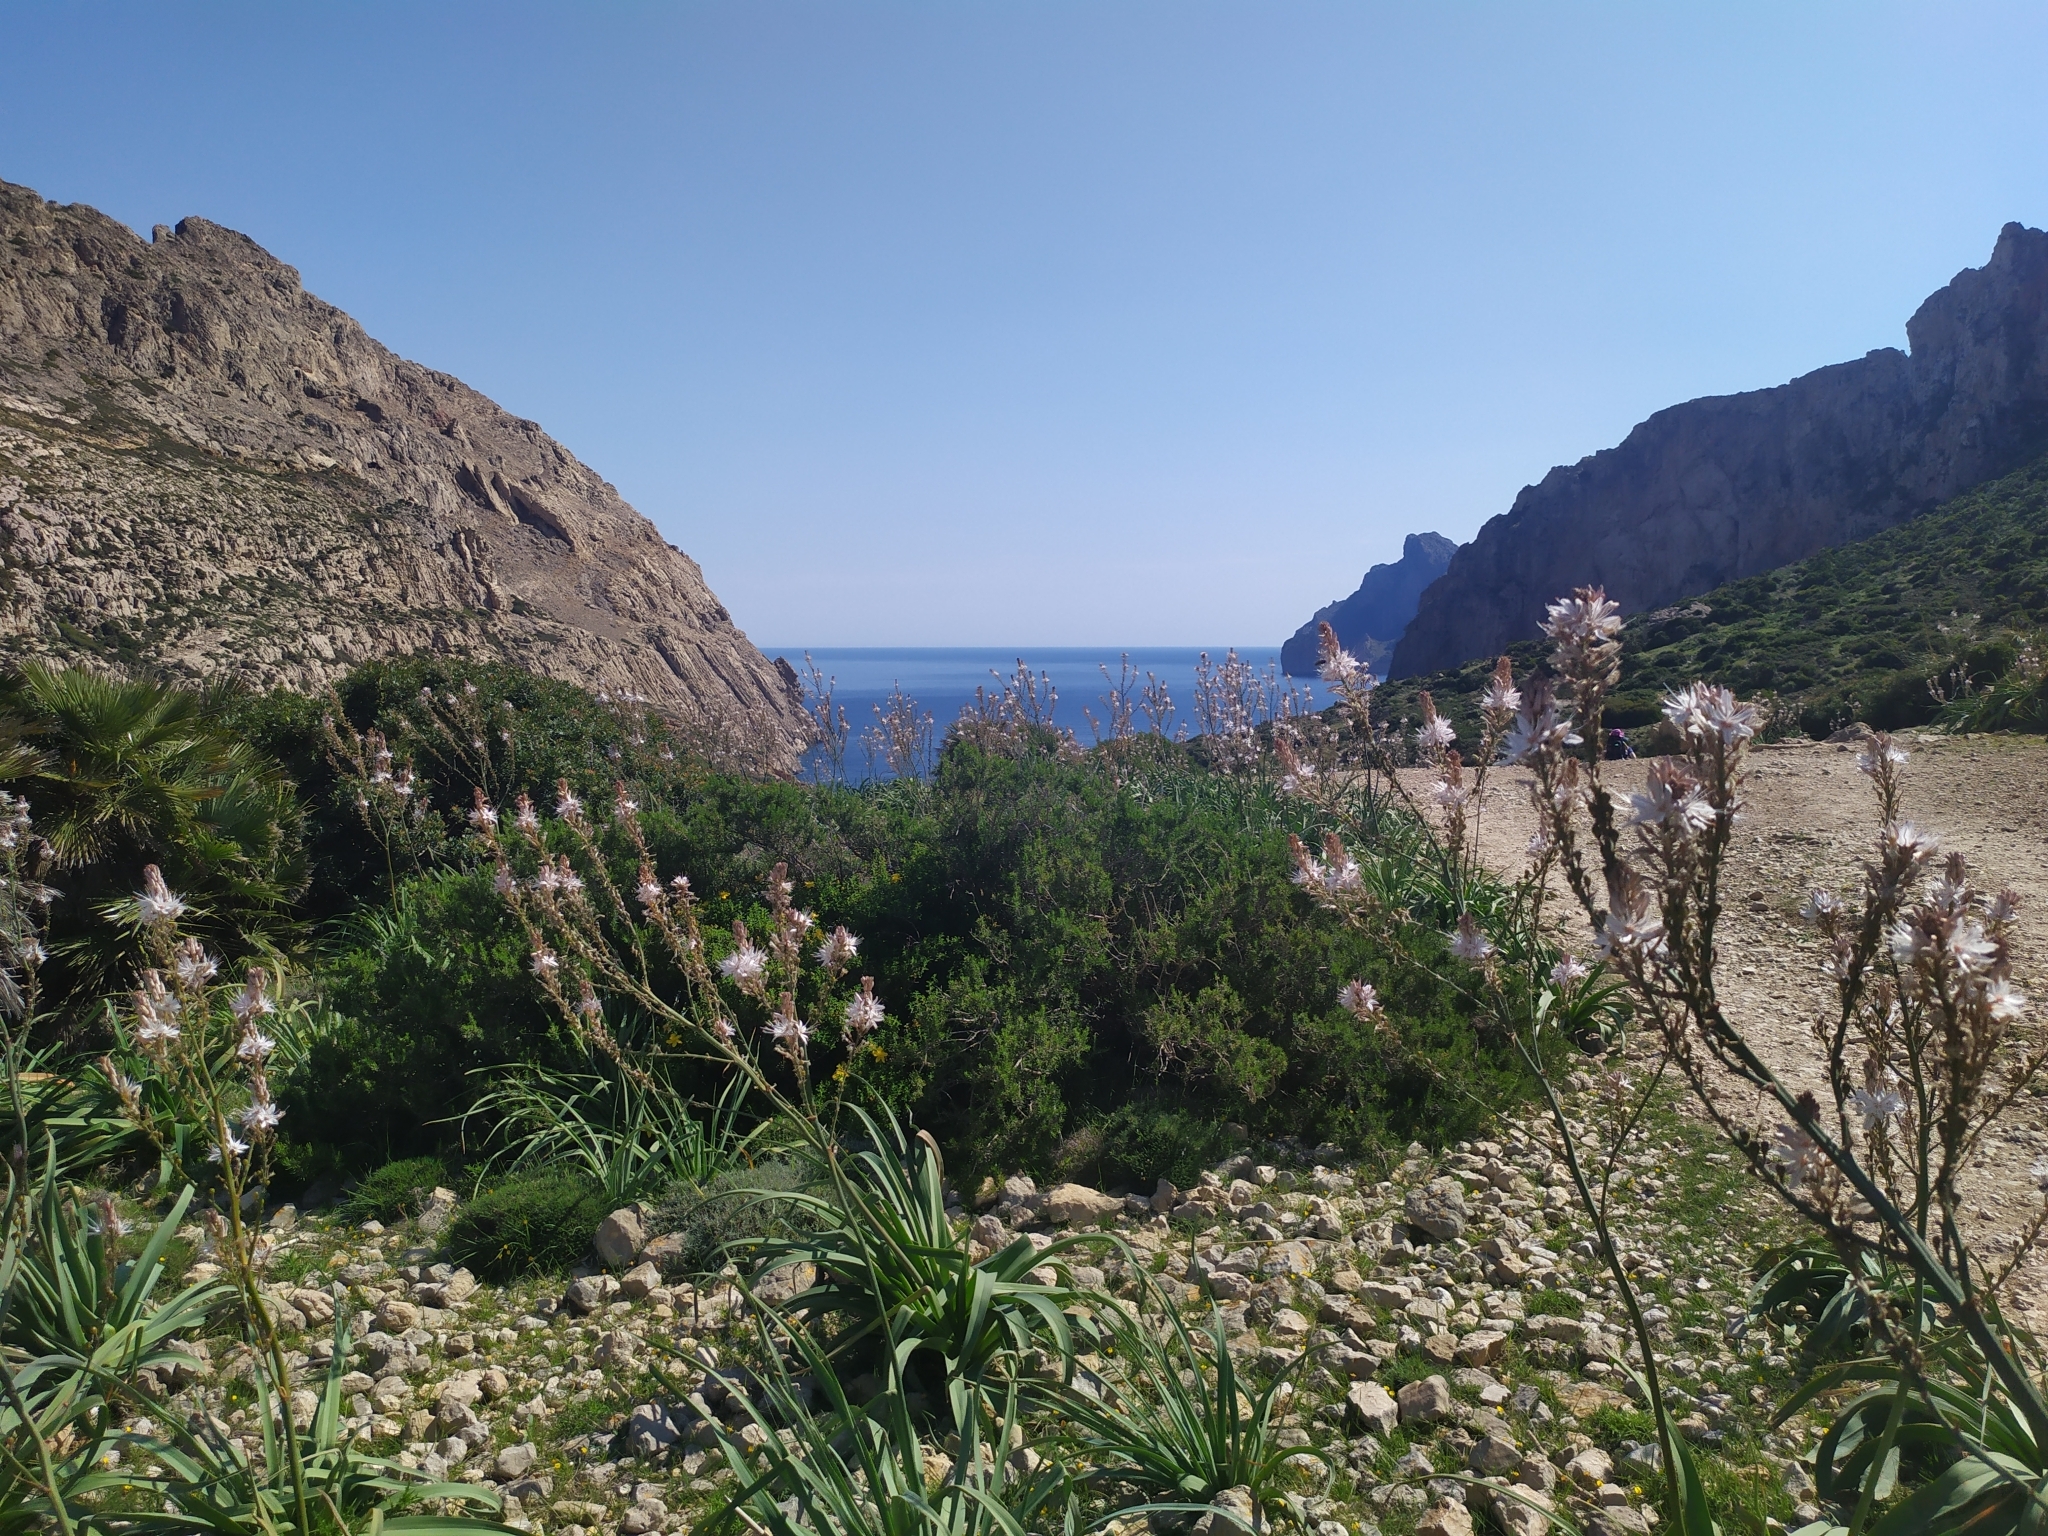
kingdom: Plantae
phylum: Tracheophyta
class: Liliopsida
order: Asparagales
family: Asphodelaceae
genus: Asphodelus
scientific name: Asphodelus ramosus
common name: Silverrod
